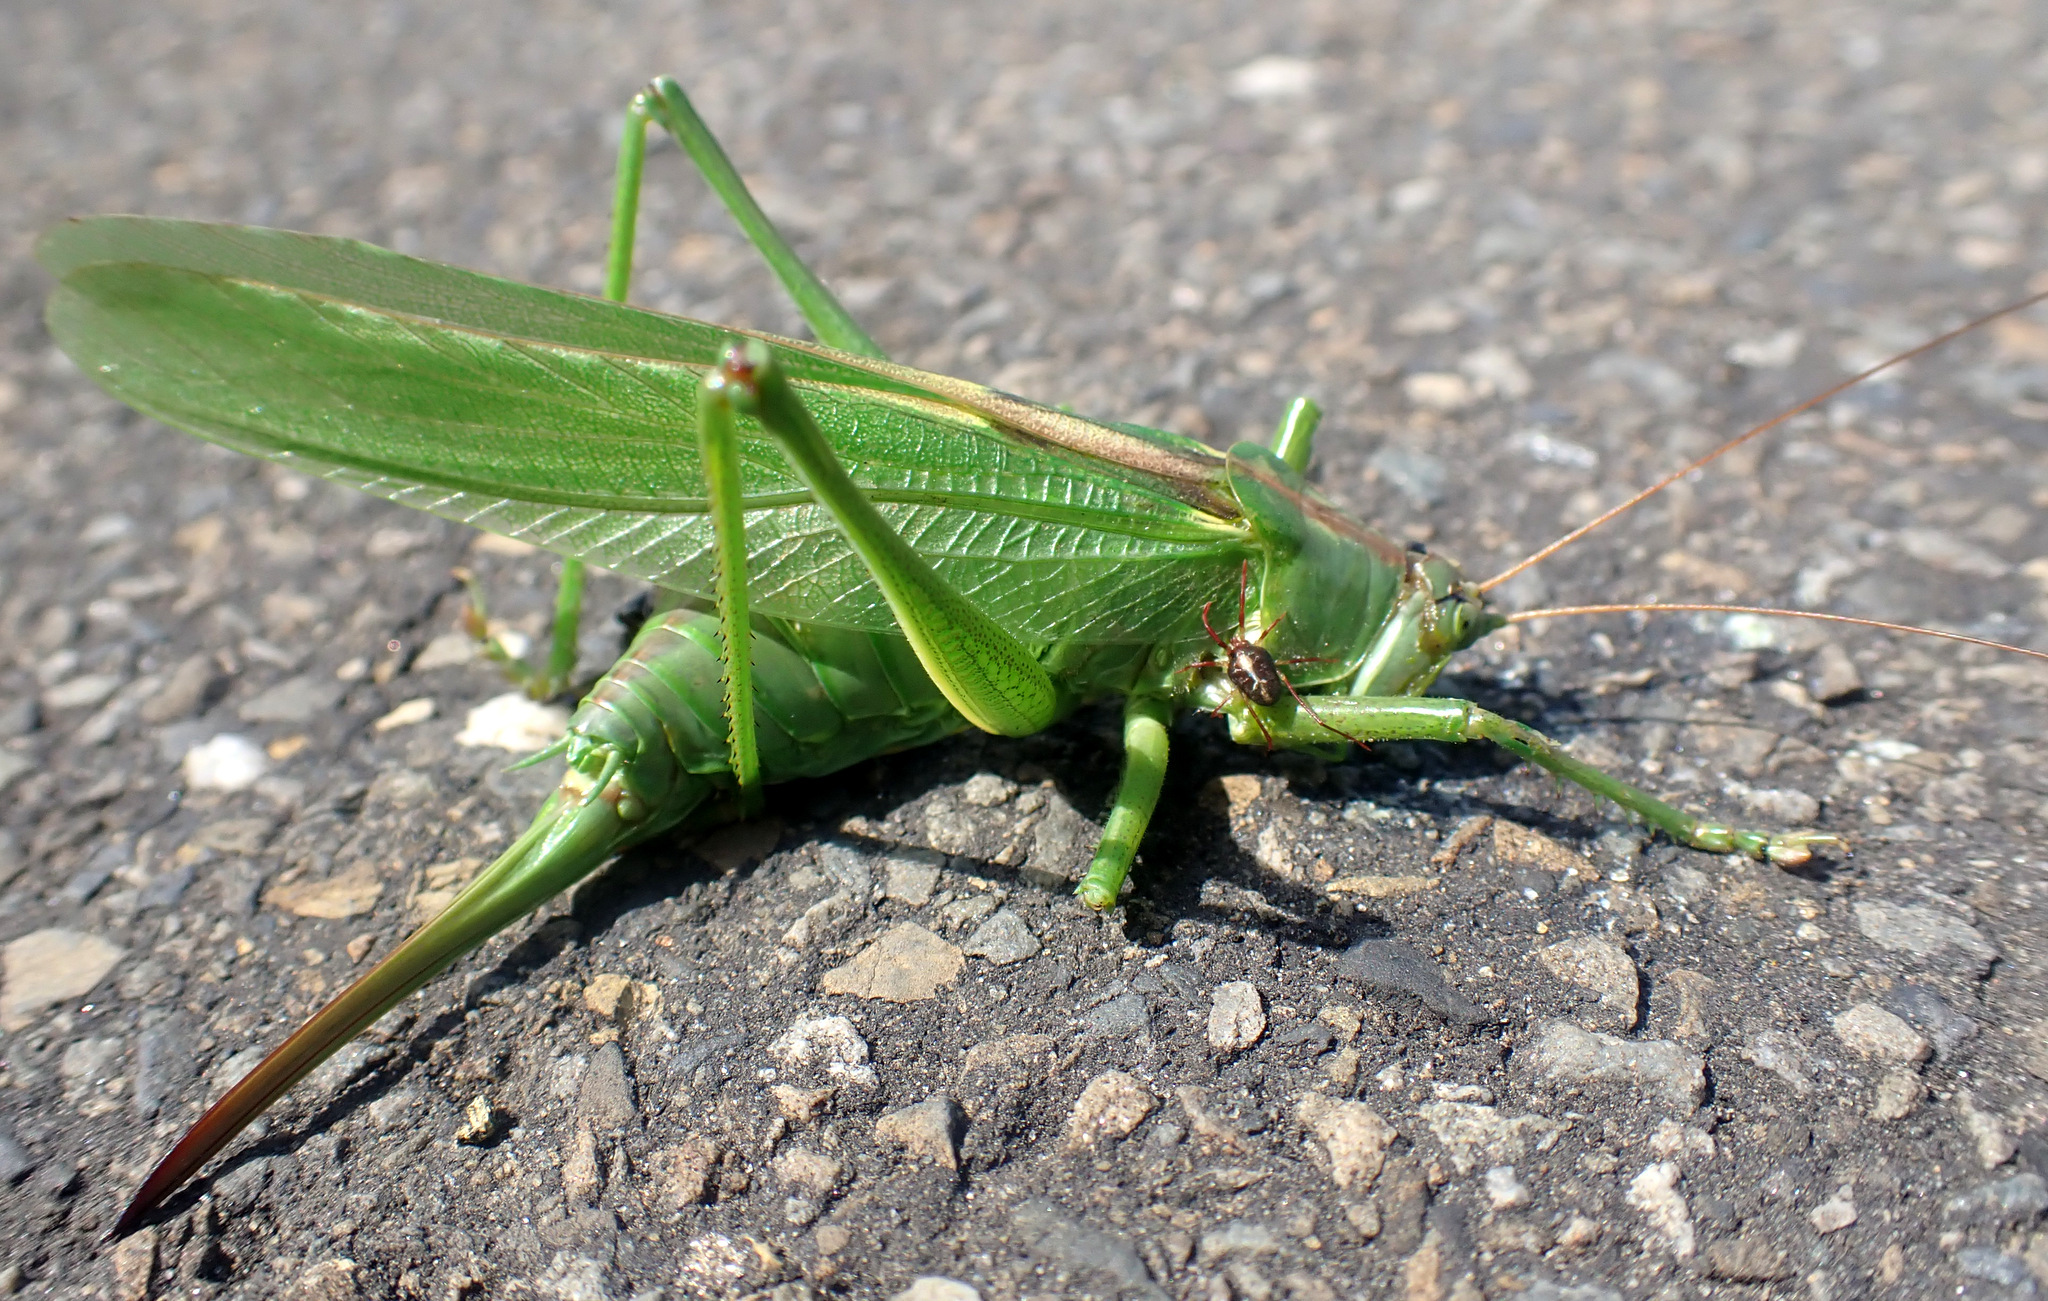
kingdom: Animalia
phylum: Arthropoda
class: Insecta
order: Orthoptera
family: Tettigoniidae
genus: Tettigonia
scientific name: Tettigonia viridissima
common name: Great green bush-cricket
